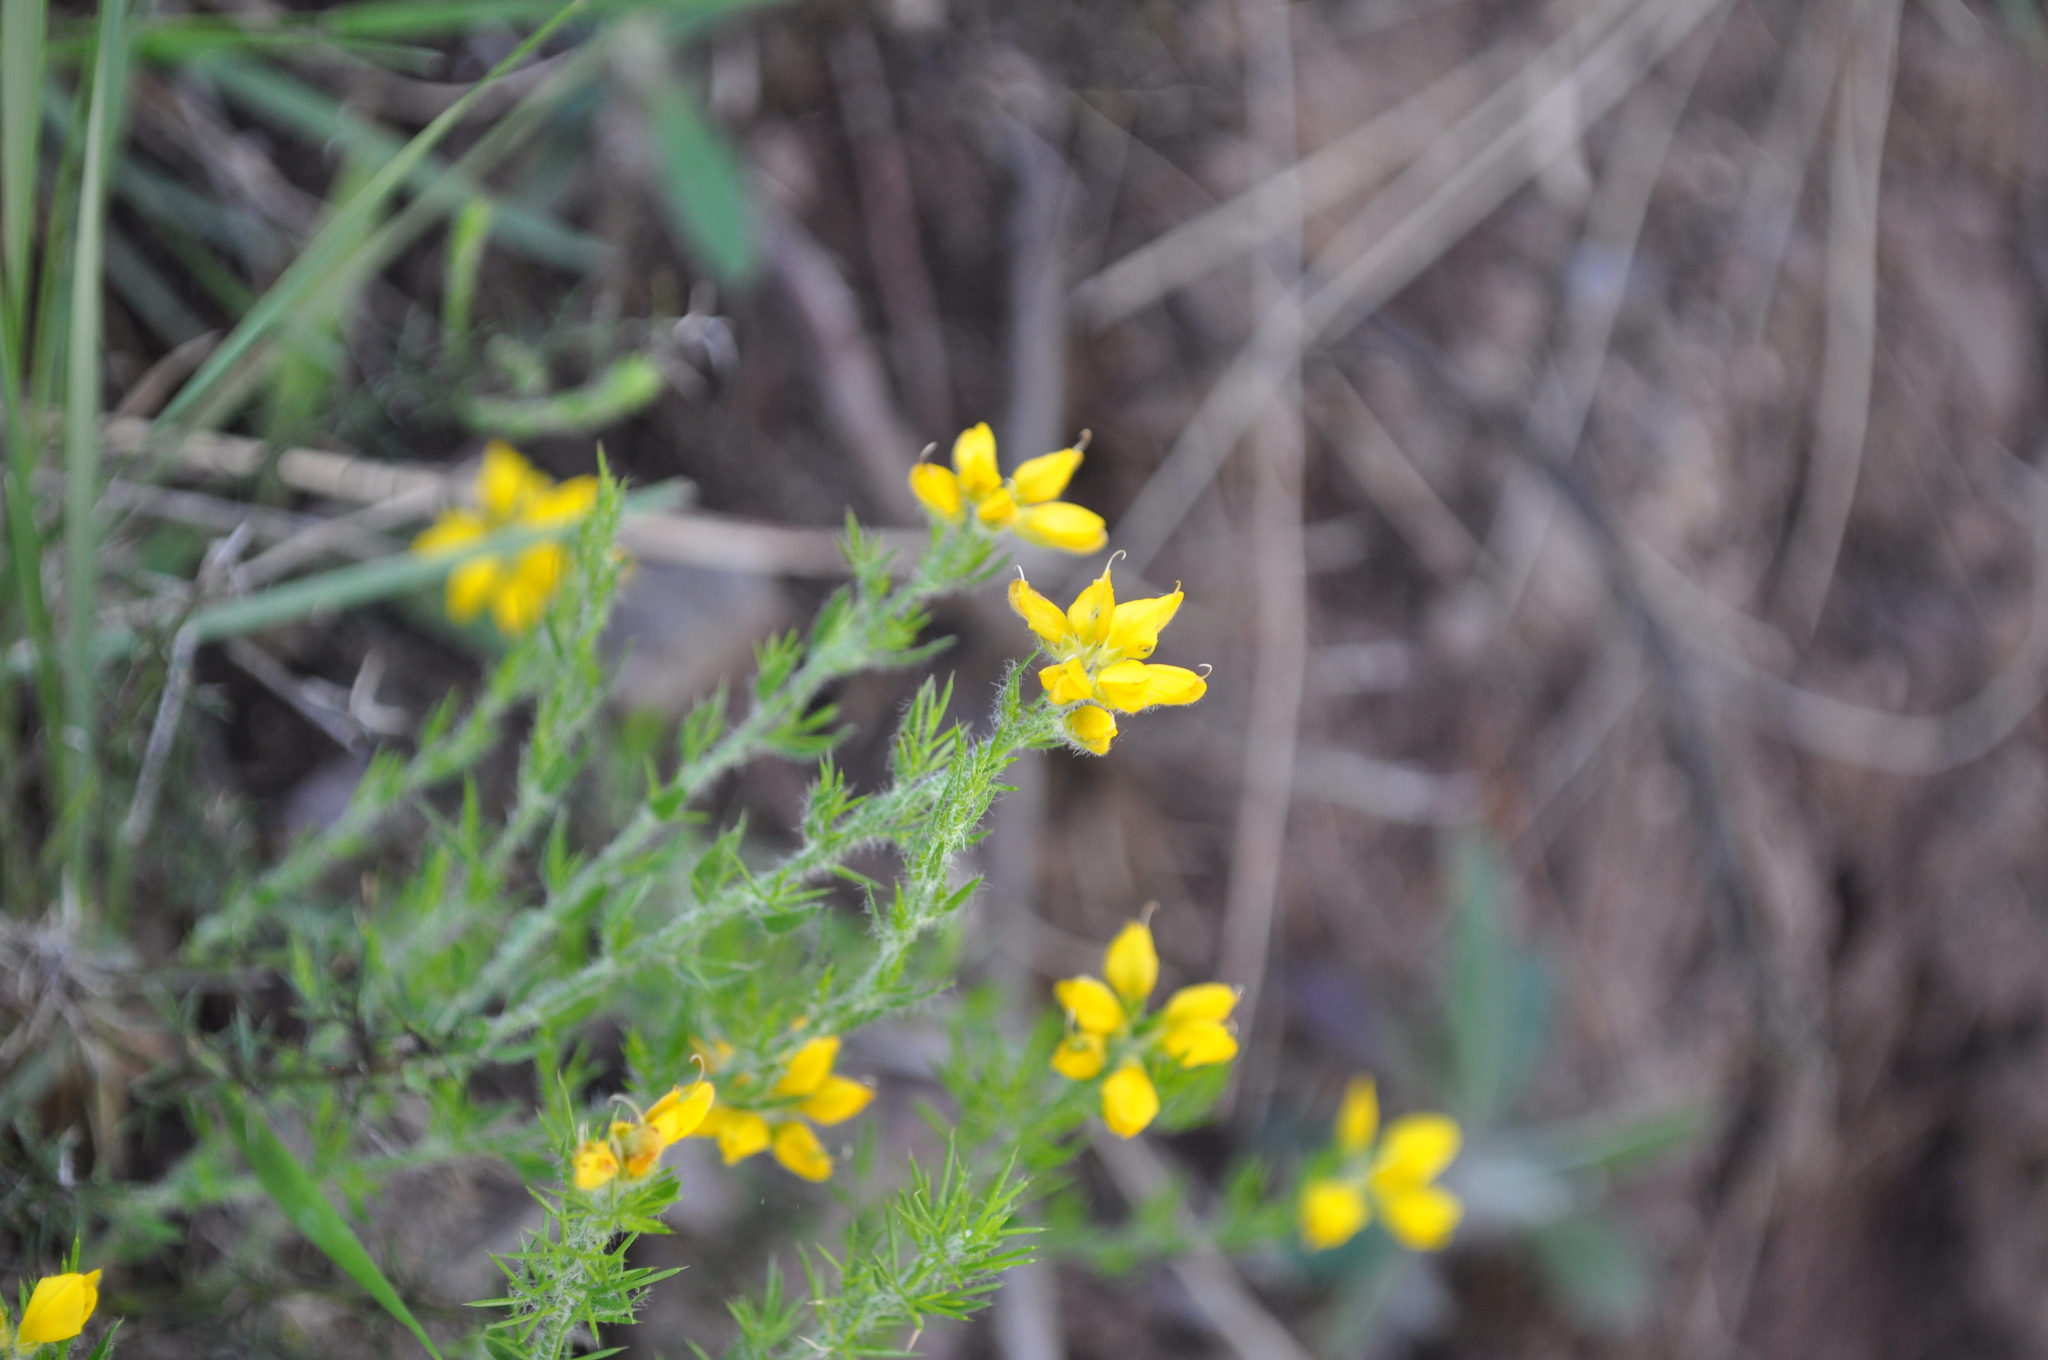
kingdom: Plantae
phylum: Tracheophyta
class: Magnoliopsida
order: Fabales
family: Fabaceae
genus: Genista
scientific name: Genista hispanica
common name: Spanish gorse
